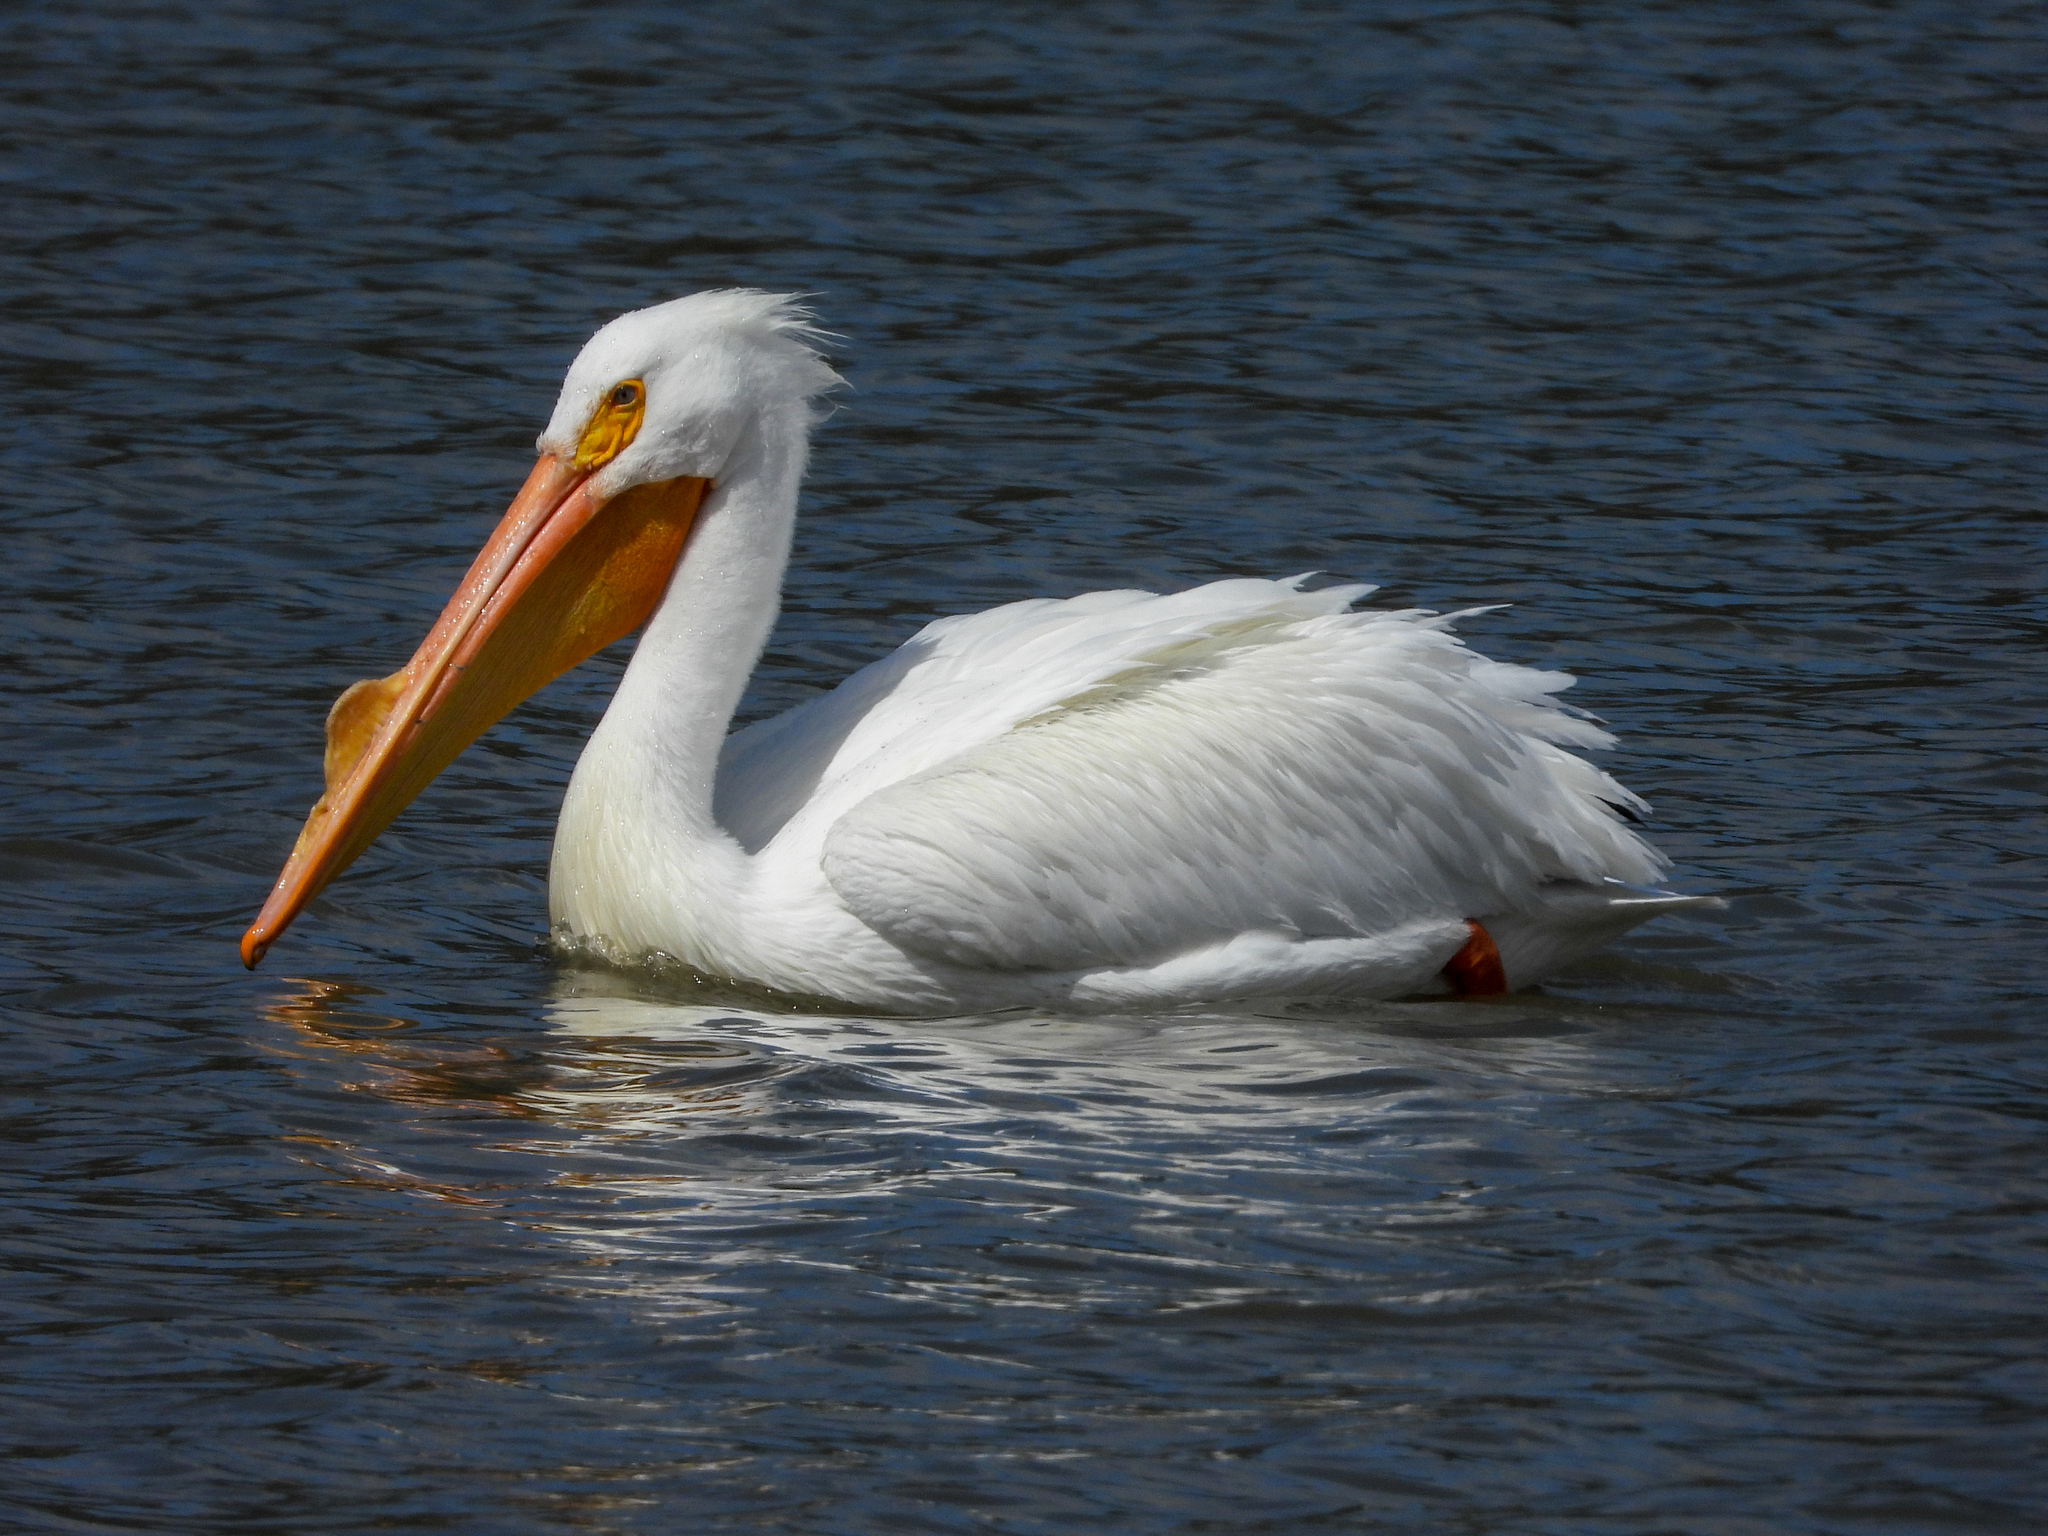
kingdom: Animalia
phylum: Chordata
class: Aves
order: Pelecaniformes
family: Pelecanidae
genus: Pelecanus
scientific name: Pelecanus erythrorhynchos
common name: American white pelican
